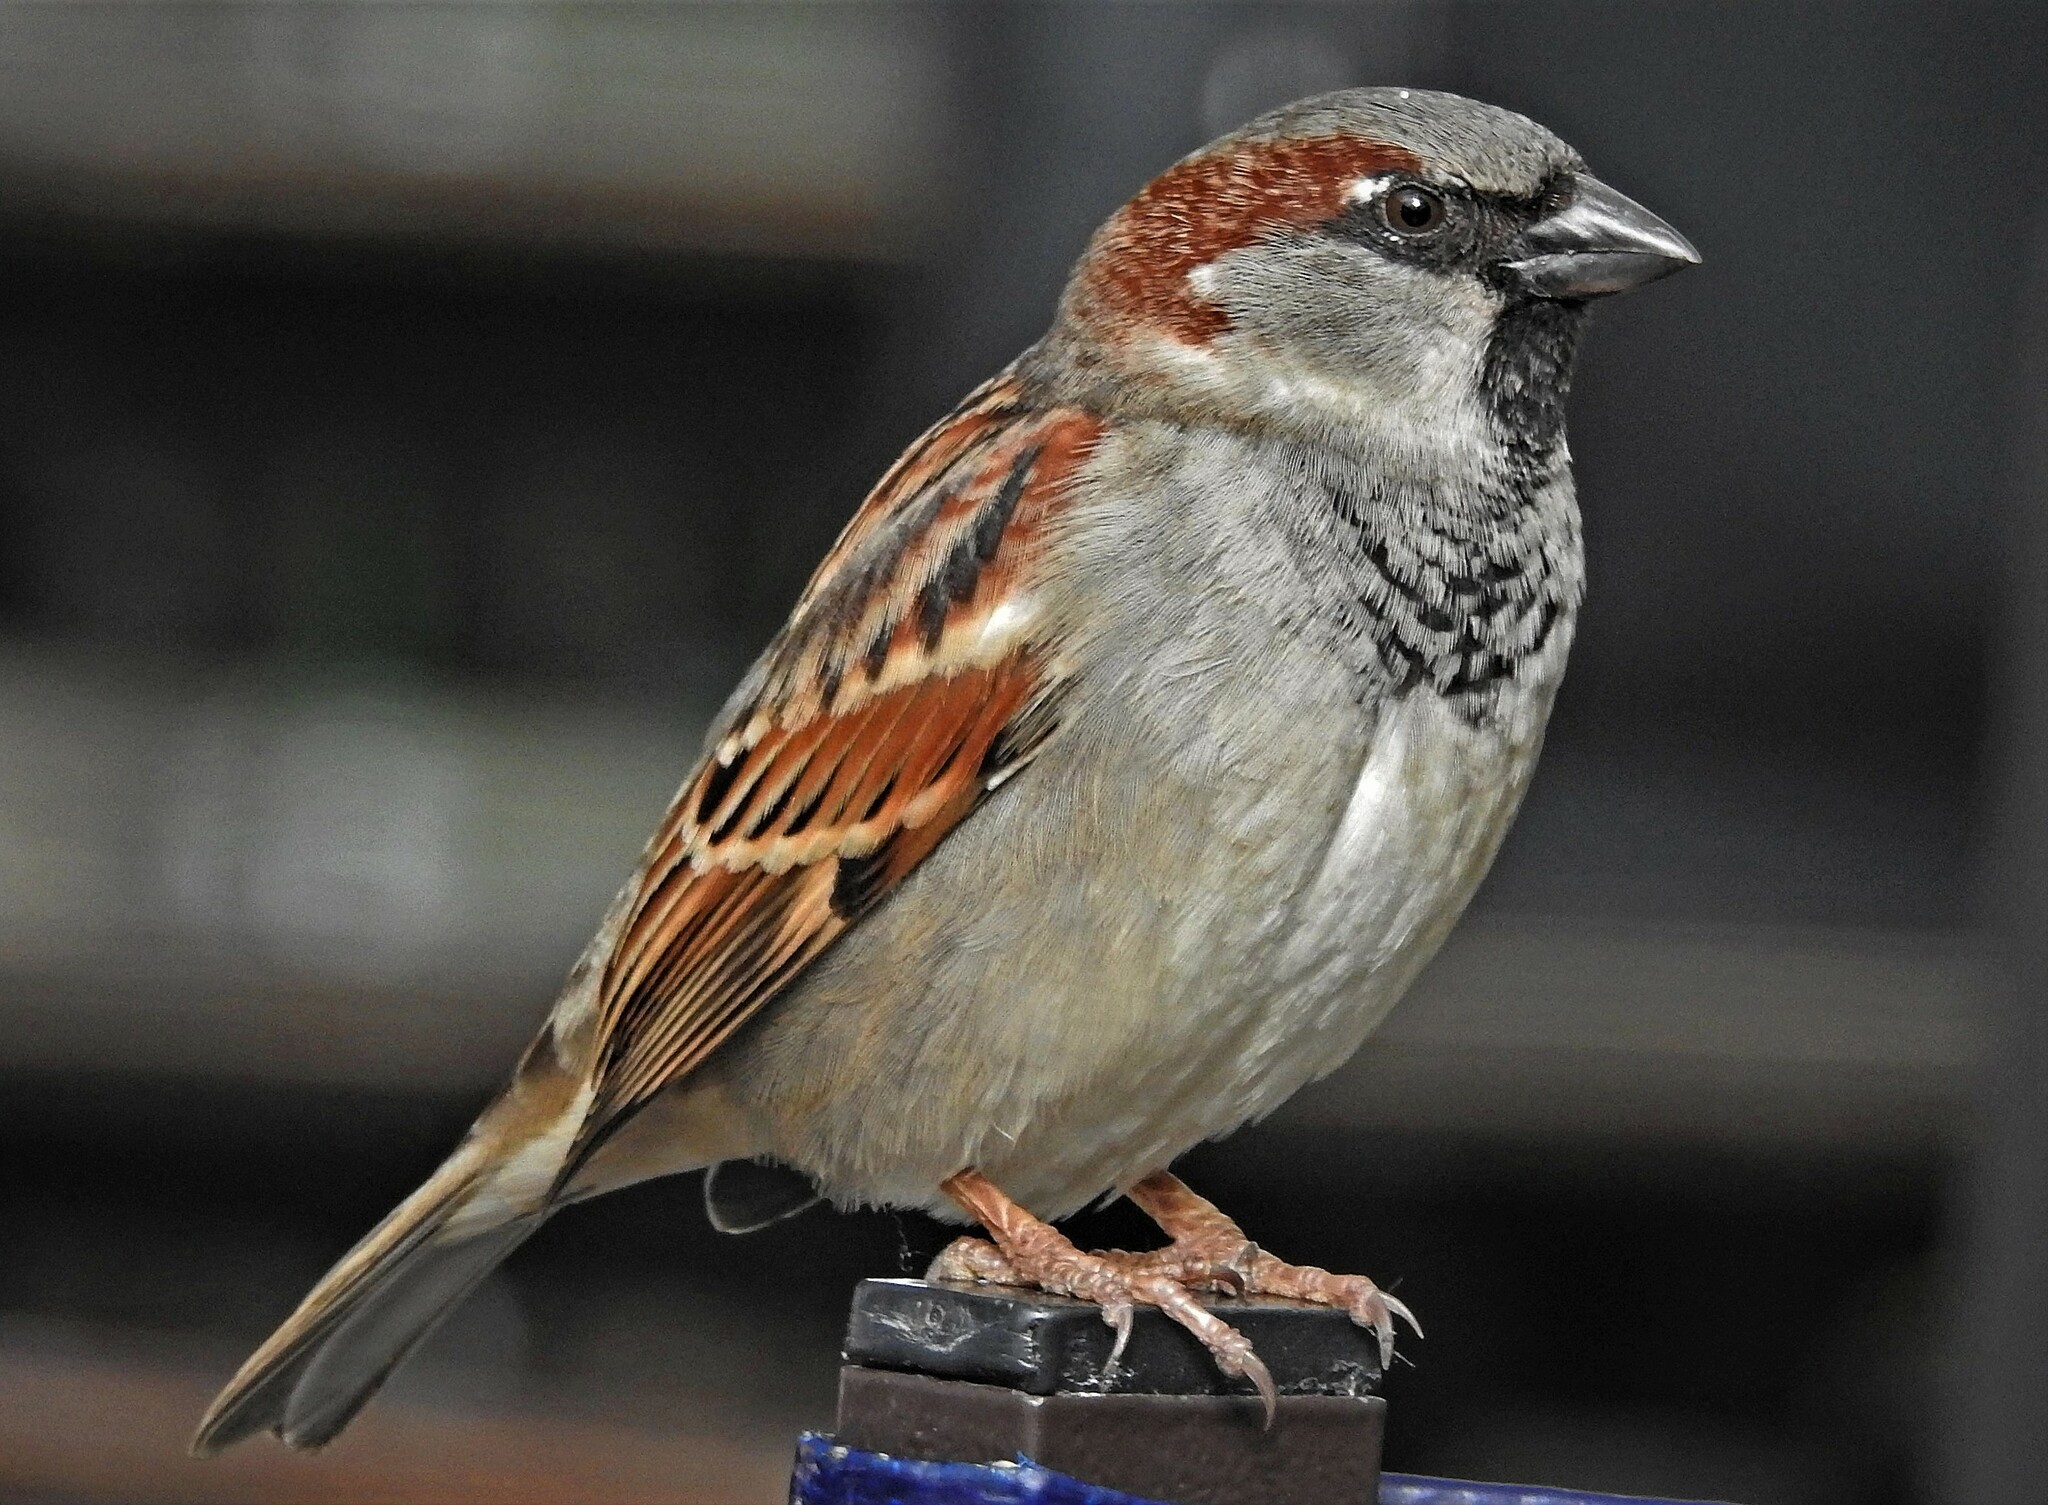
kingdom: Animalia
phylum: Chordata
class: Aves
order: Passeriformes
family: Passeridae
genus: Passer
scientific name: Passer domesticus
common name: House sparrow
